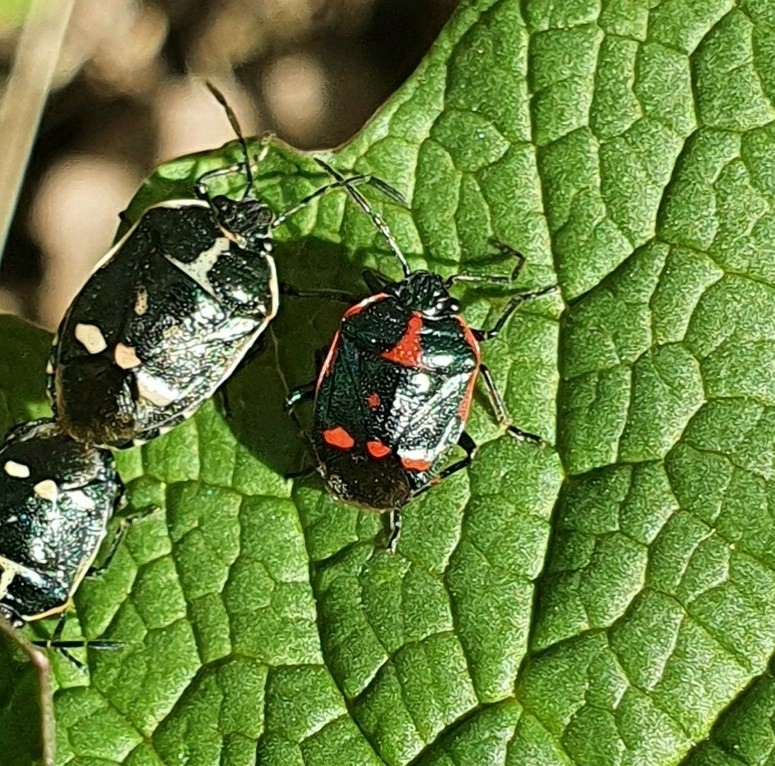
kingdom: Animalia
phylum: Arthropoda
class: Insecta
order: Hemiptera
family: Pentatomidae
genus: Eurydema
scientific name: Eurydema oleracea
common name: Cabbage bug
